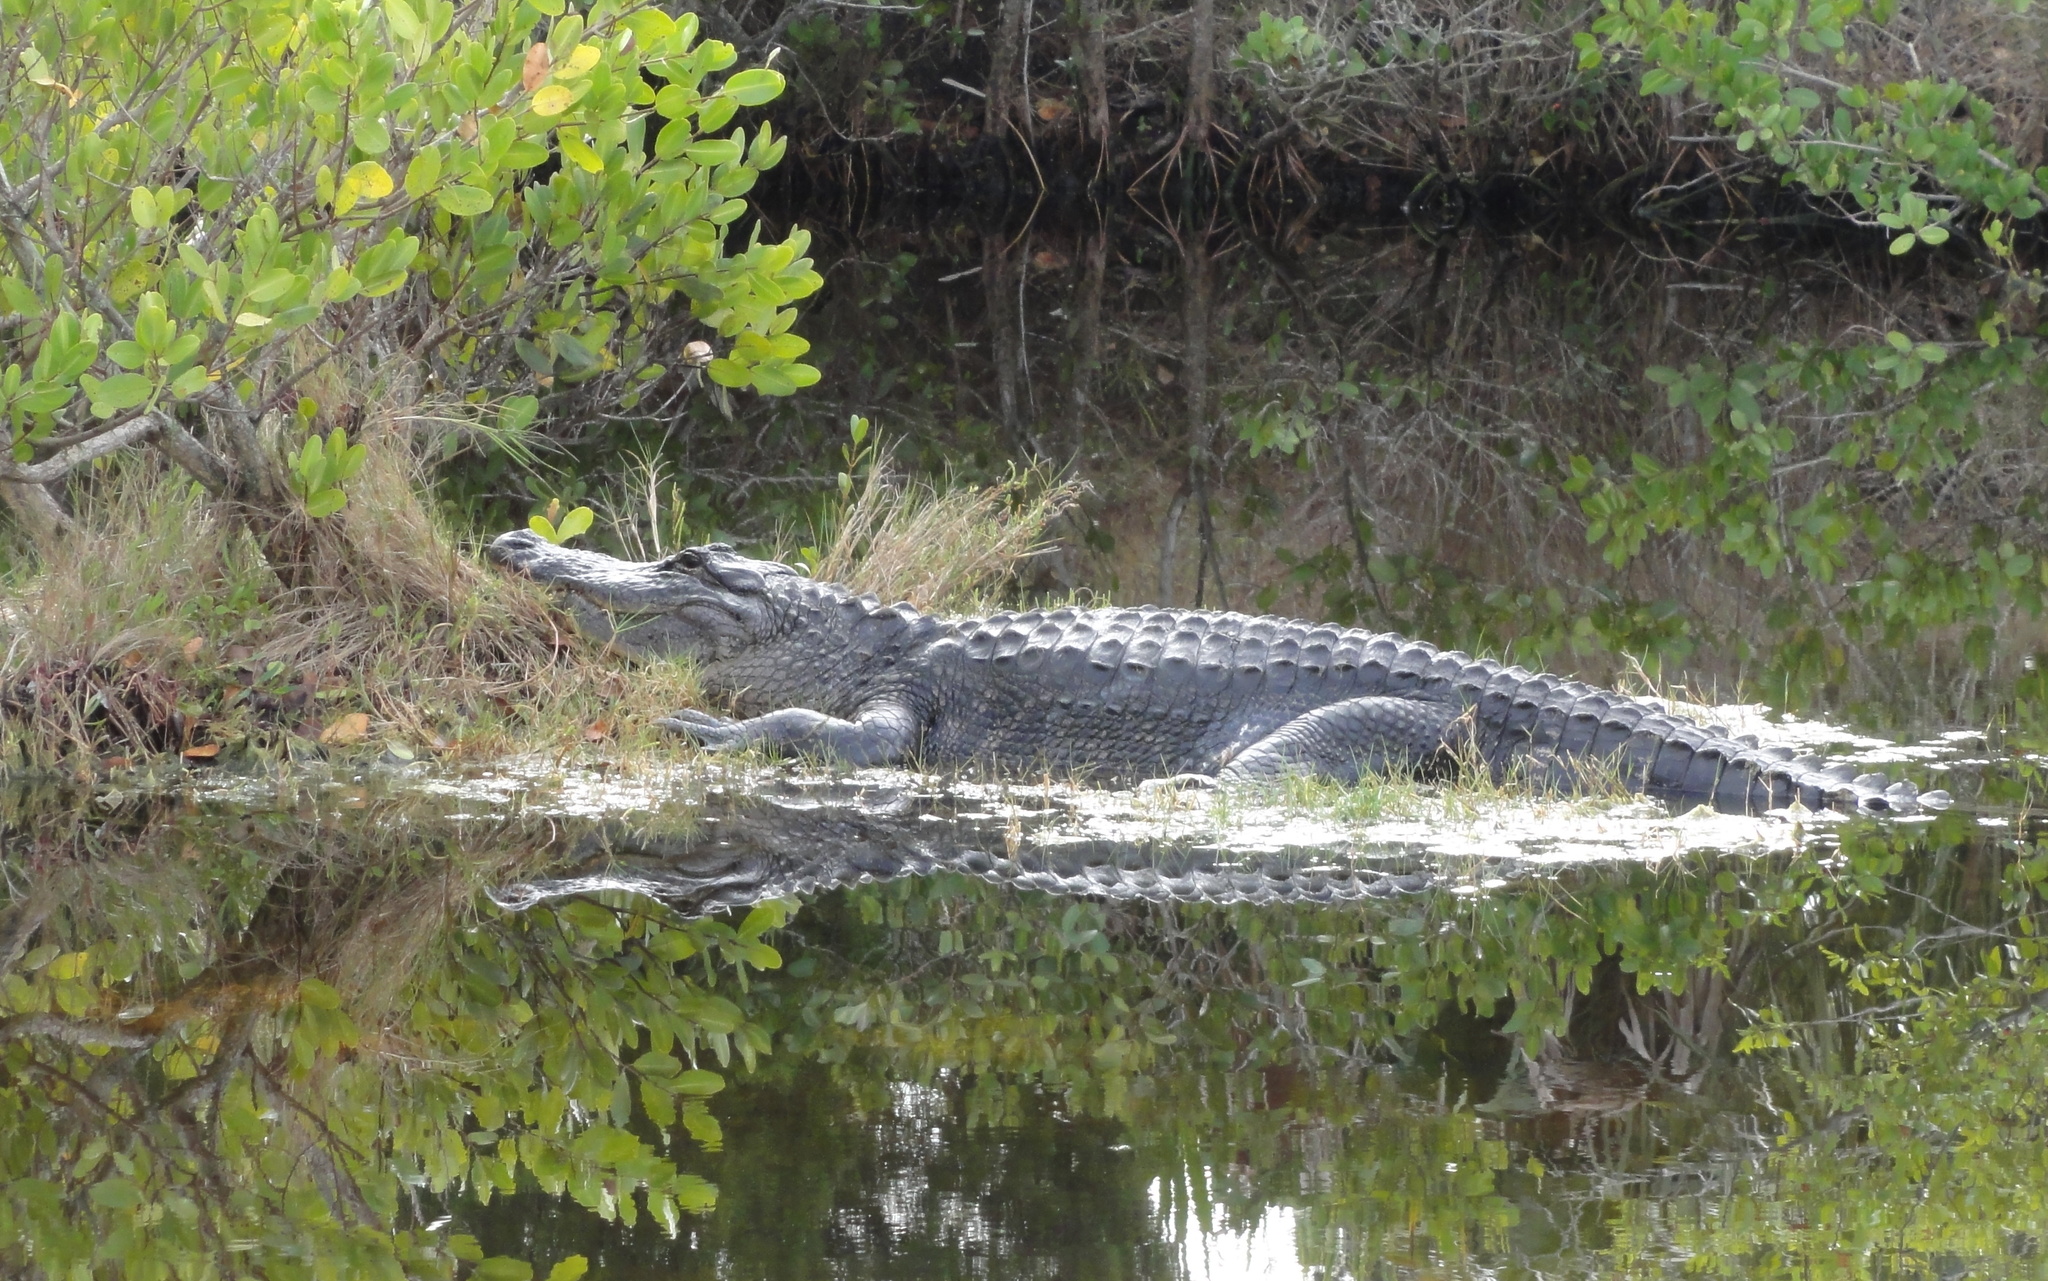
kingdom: Animalia
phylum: Chordata
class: Crocodylia
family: Alligatoridae
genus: Alligator
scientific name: Alligator mississippiensis
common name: American alligator
